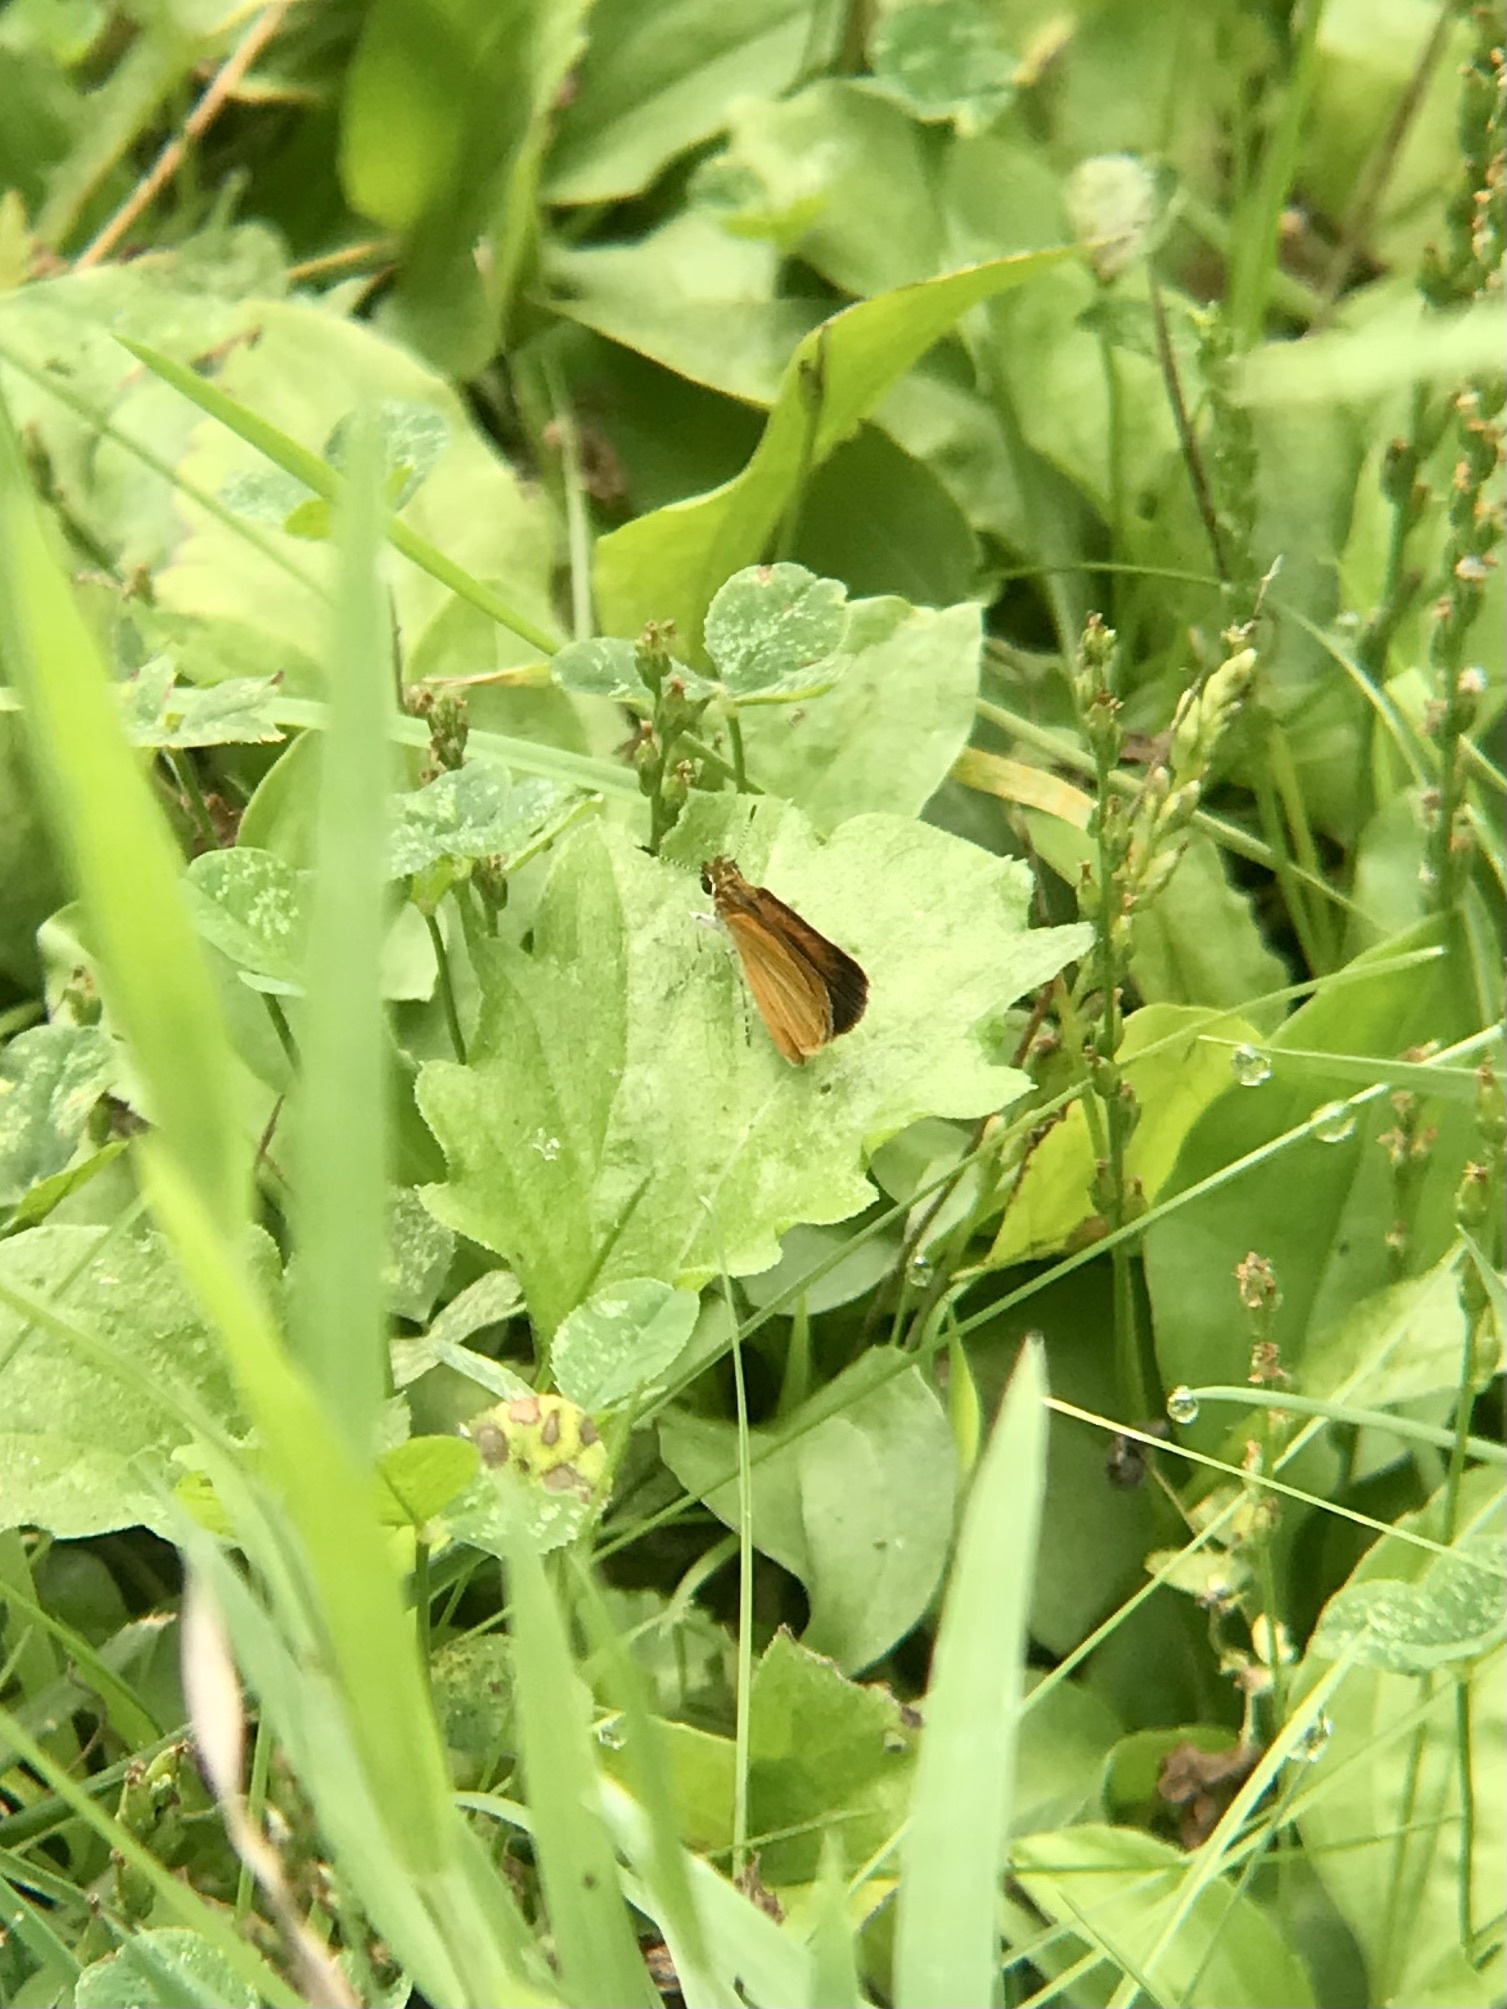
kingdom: Animalia
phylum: Arthropoda
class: Insecta
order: Lepidoptera
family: Hesperiidae
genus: Ancyloxypha
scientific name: Ancyloxypha numitor
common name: Least skipper
